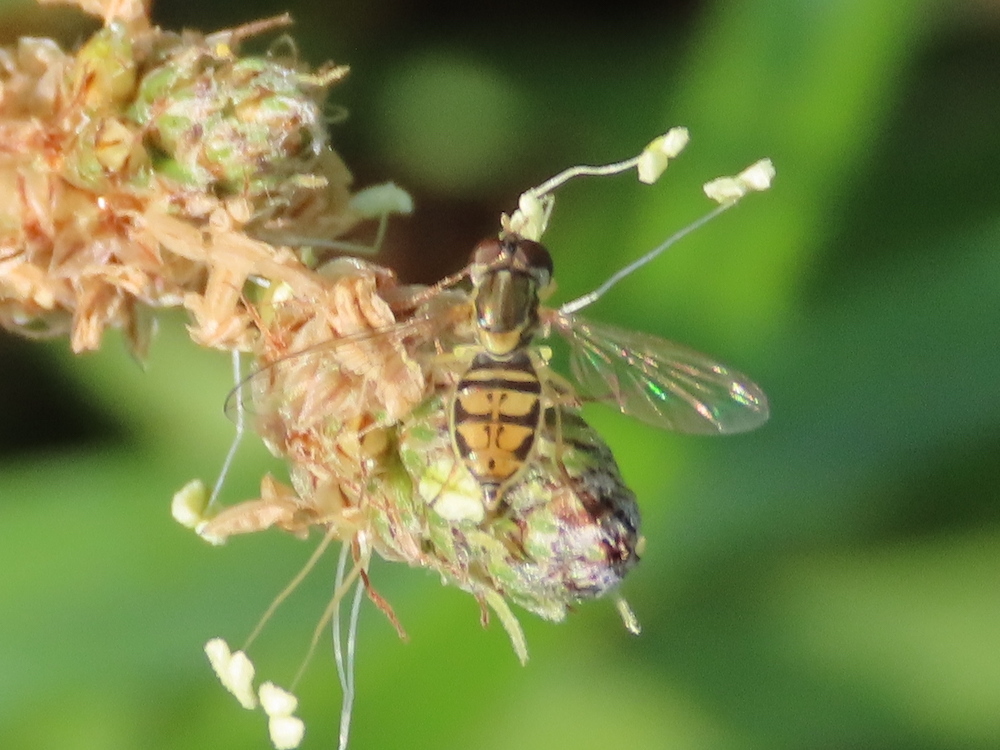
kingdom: Animalia
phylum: Arthropoda
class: Insecta
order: Diptera
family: Syrphidae
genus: Toxomerus
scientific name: Toxomerus marginatus
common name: Syrphid fly
